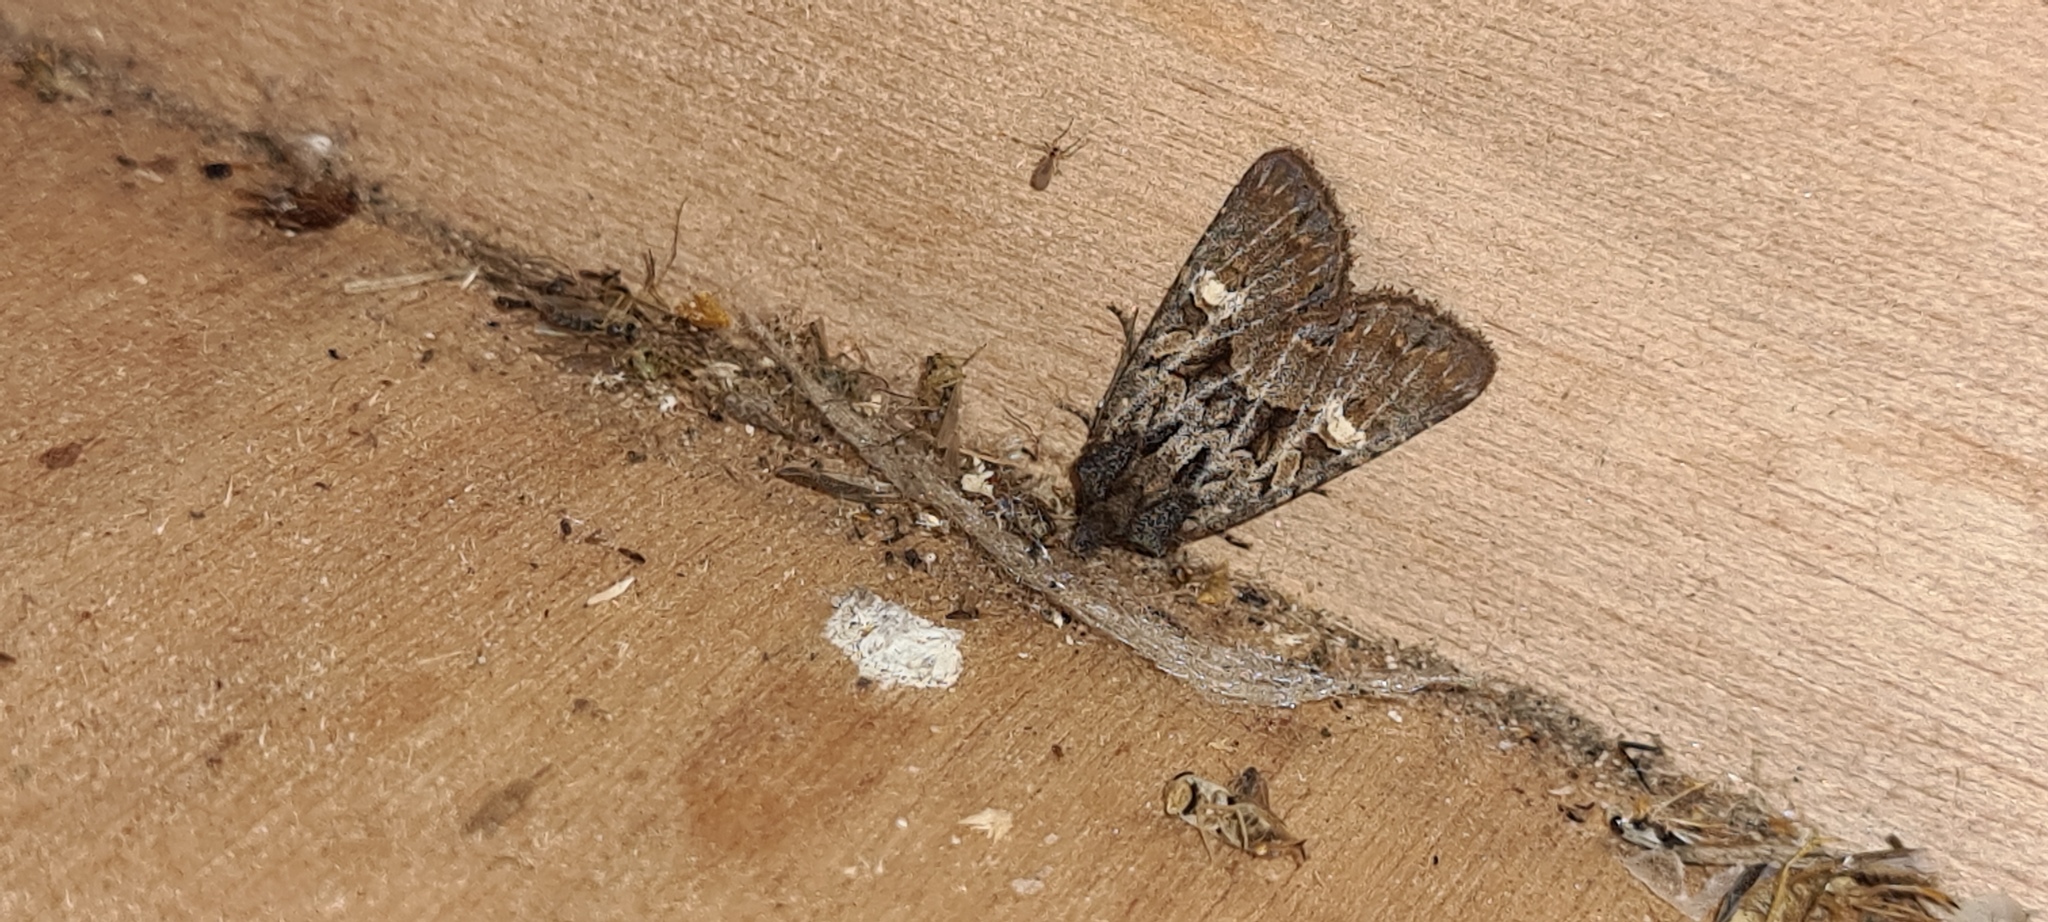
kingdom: Animalia
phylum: Arthropoda
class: Insecta
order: Lepidoptera
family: Noctuidae
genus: Mesapamea
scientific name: Mesapamea
